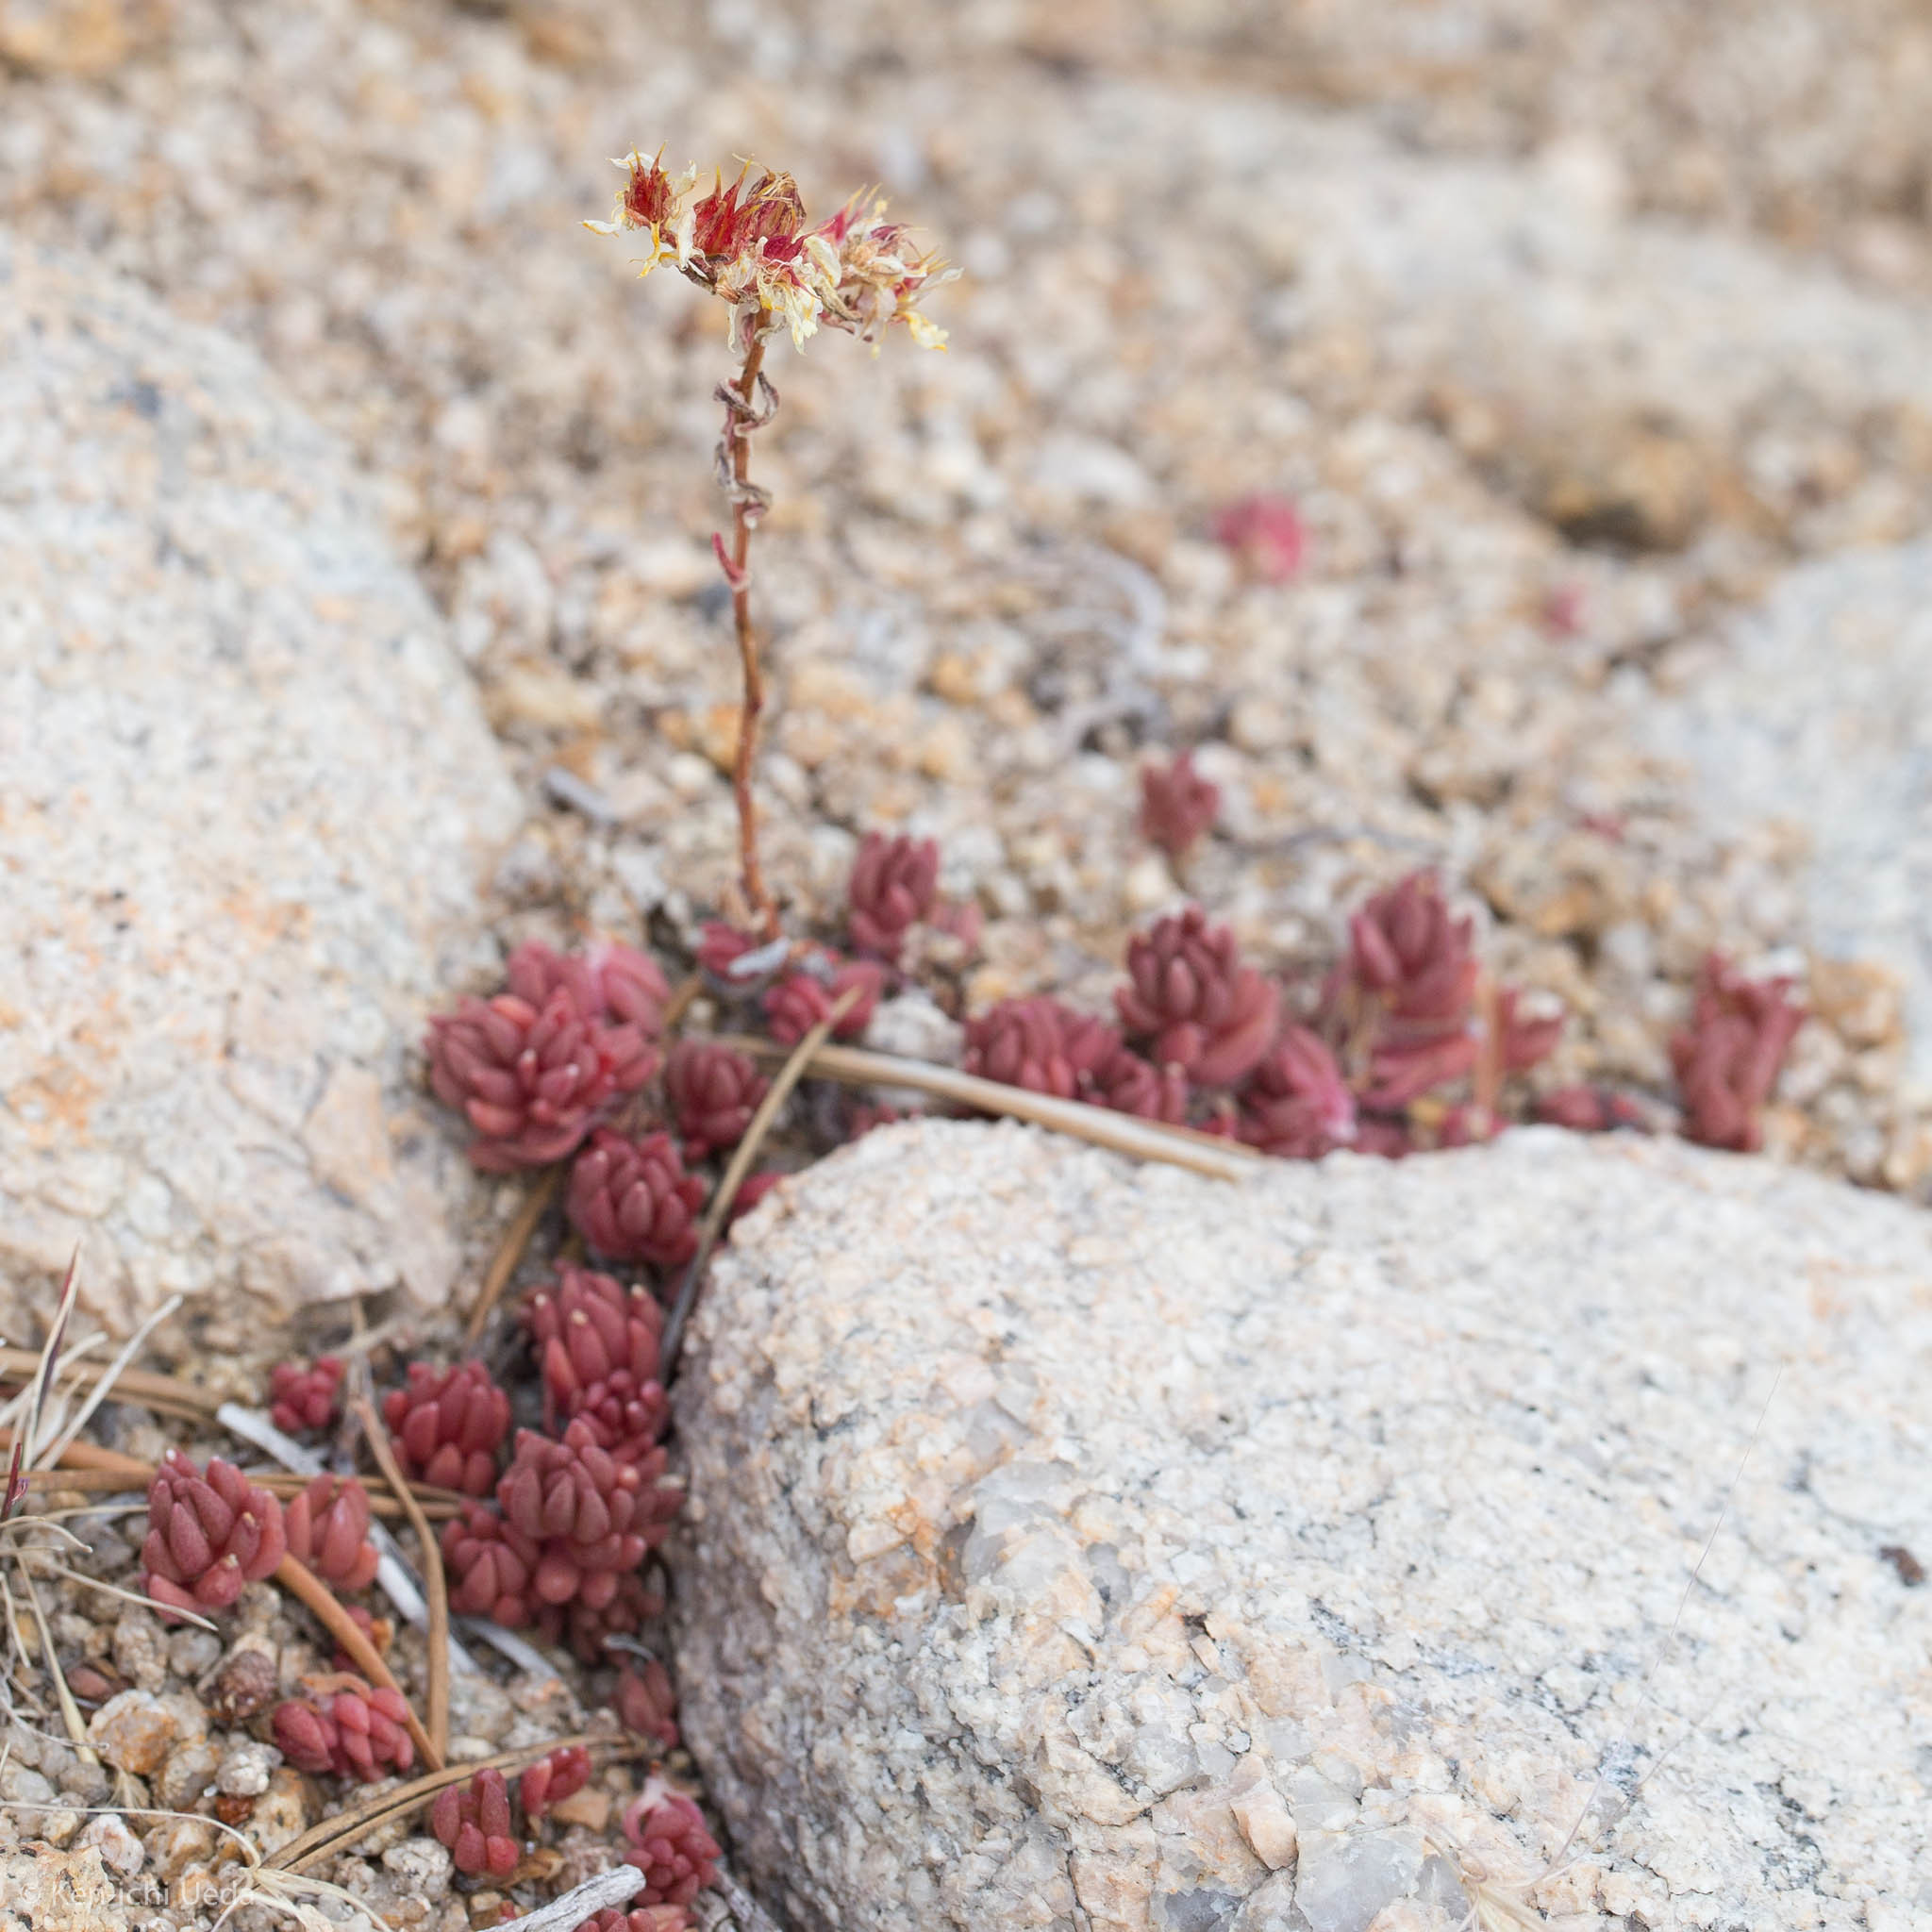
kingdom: Plantae
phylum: Tracheophyta
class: Magnoliopsida
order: Saxifragales
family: Crassulaceae
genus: Sedum
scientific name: Sedum lanceolatum
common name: Common stonecrop
